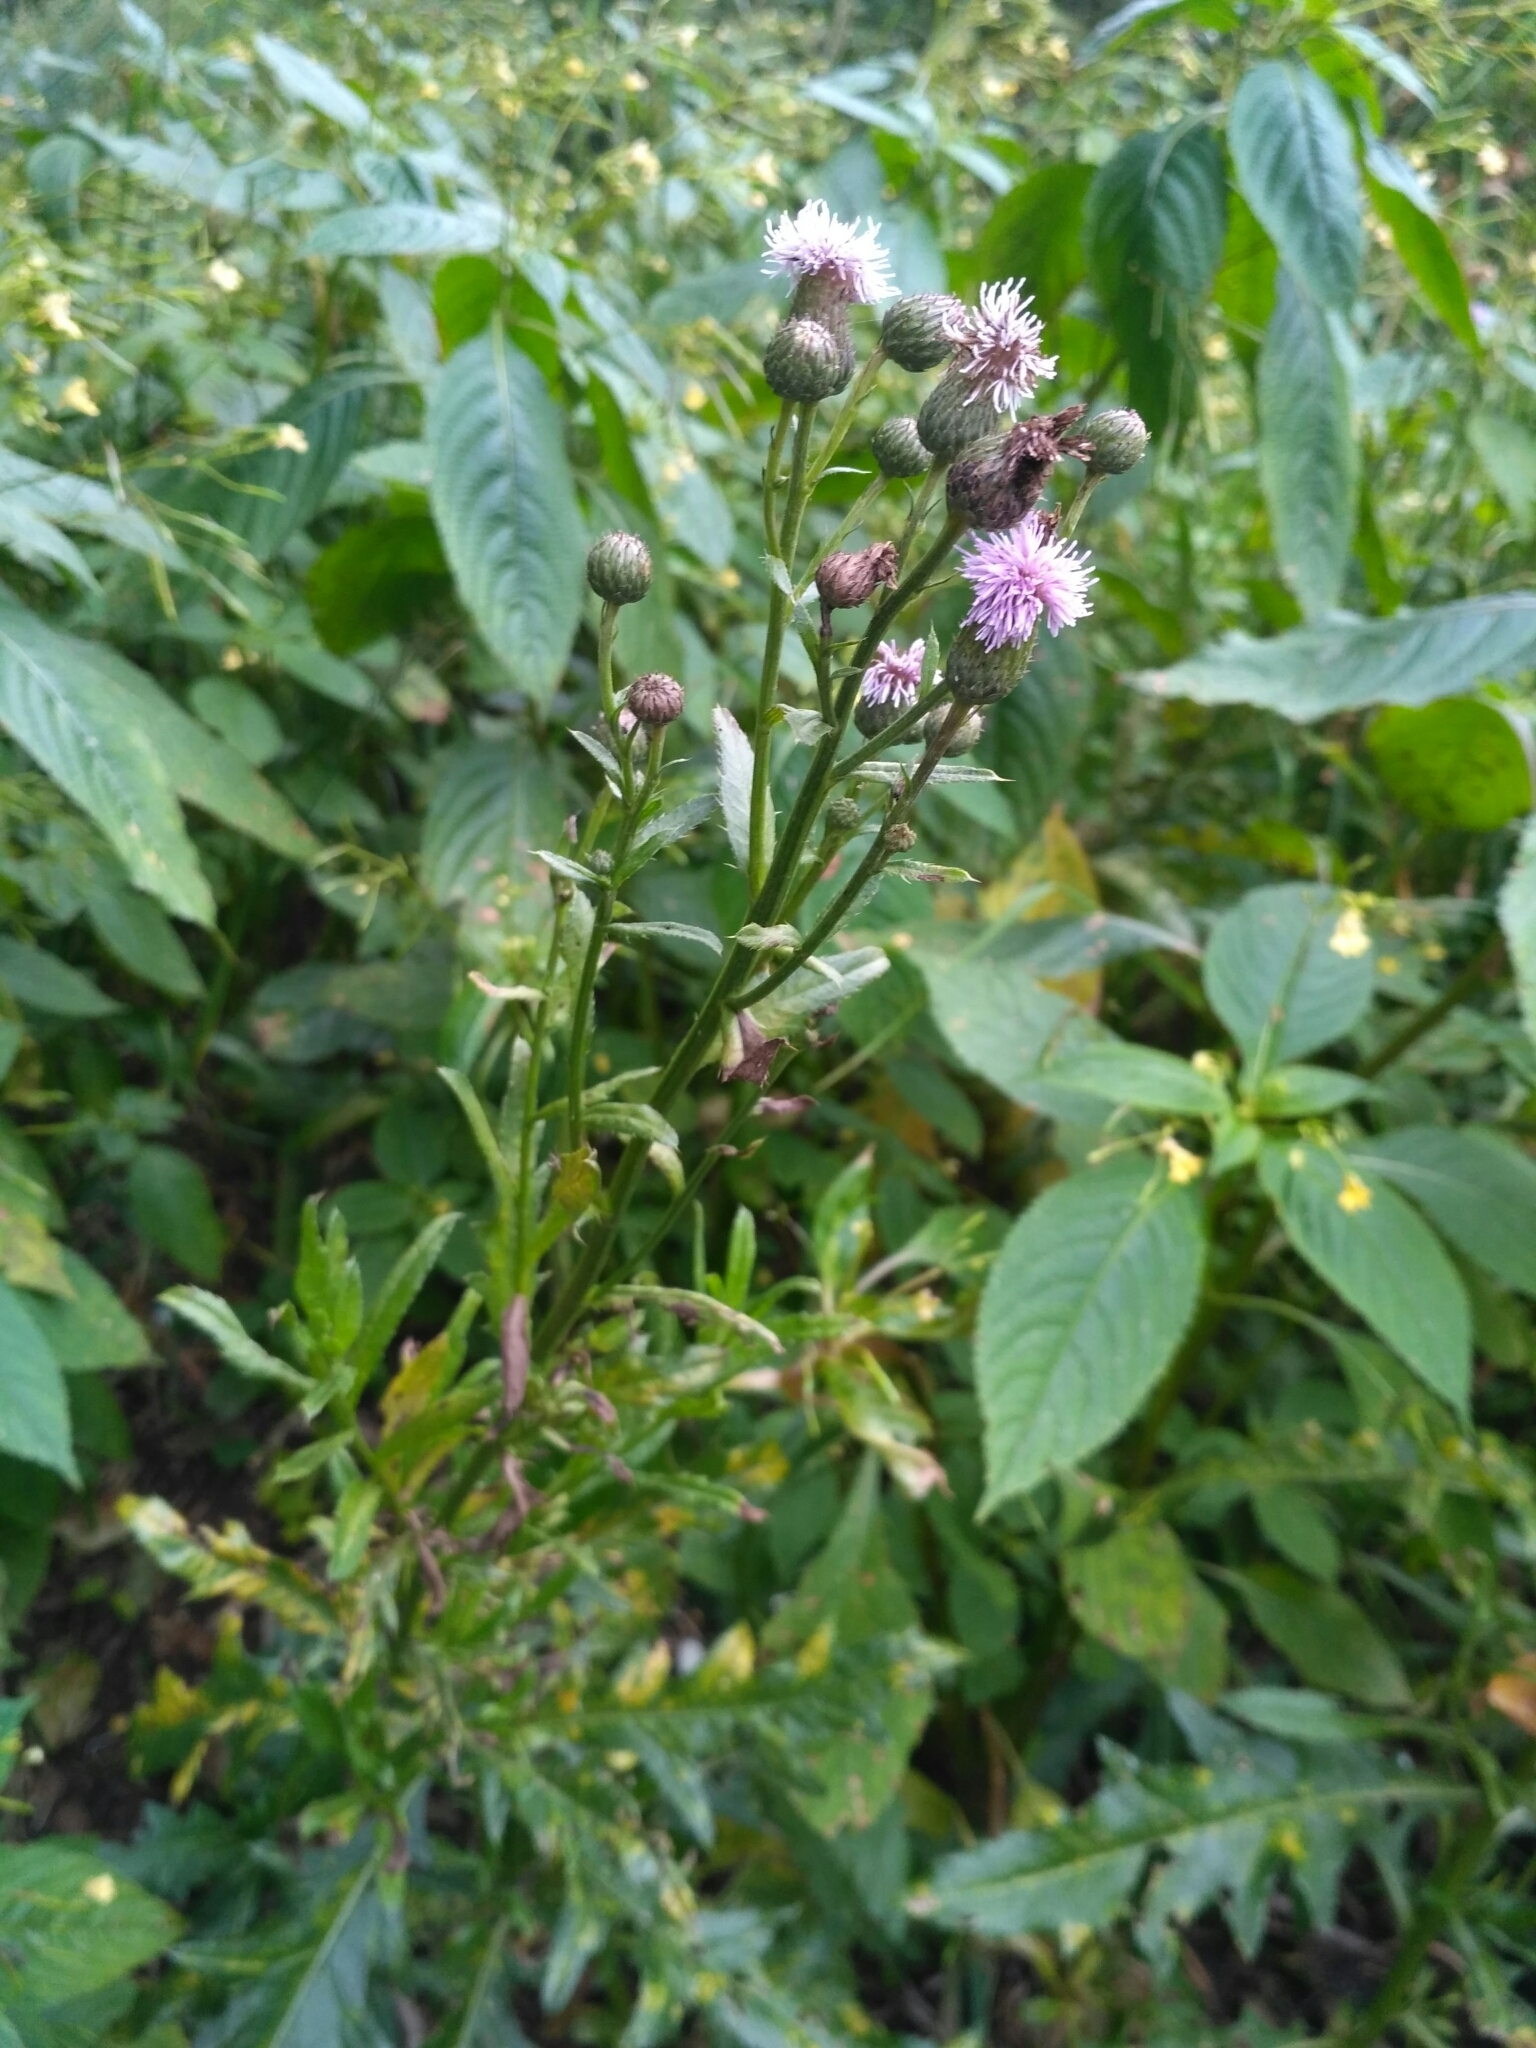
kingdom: Plantae
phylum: Tracheophyta
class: Magnoliopsida
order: Asterales
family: Asteraceae
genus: Cirsium
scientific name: Cirsium arvense
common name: Creeping thistle
